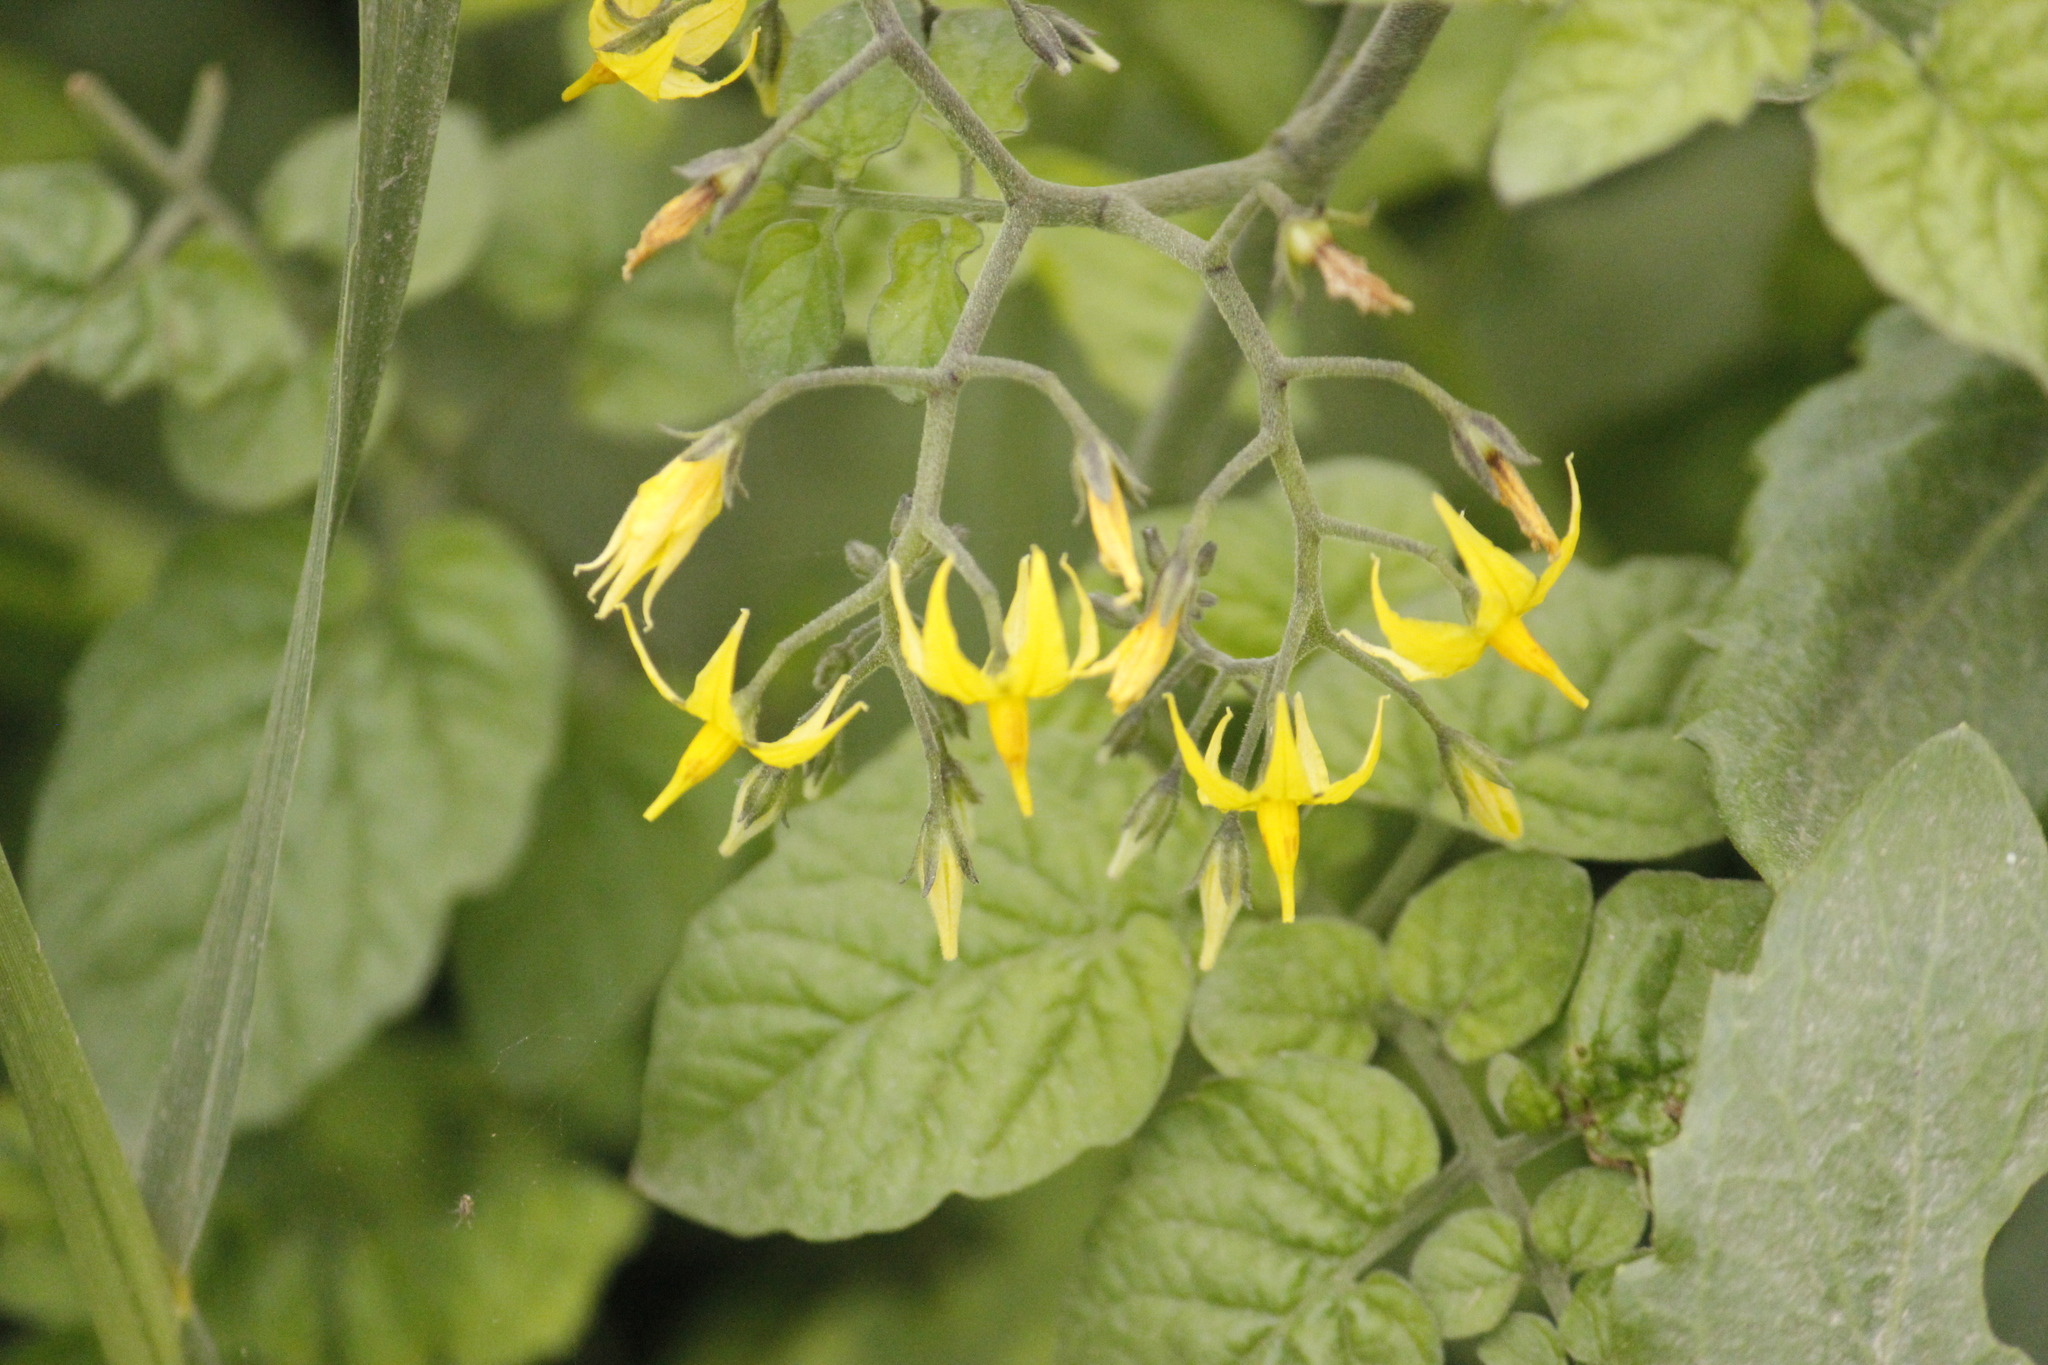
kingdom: Plantae
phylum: Tracheophyta
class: Magnoliopsida
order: Solanales
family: Solanaceae
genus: Solanum
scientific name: Solanum pimpinellifolium
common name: Currant-tomato
